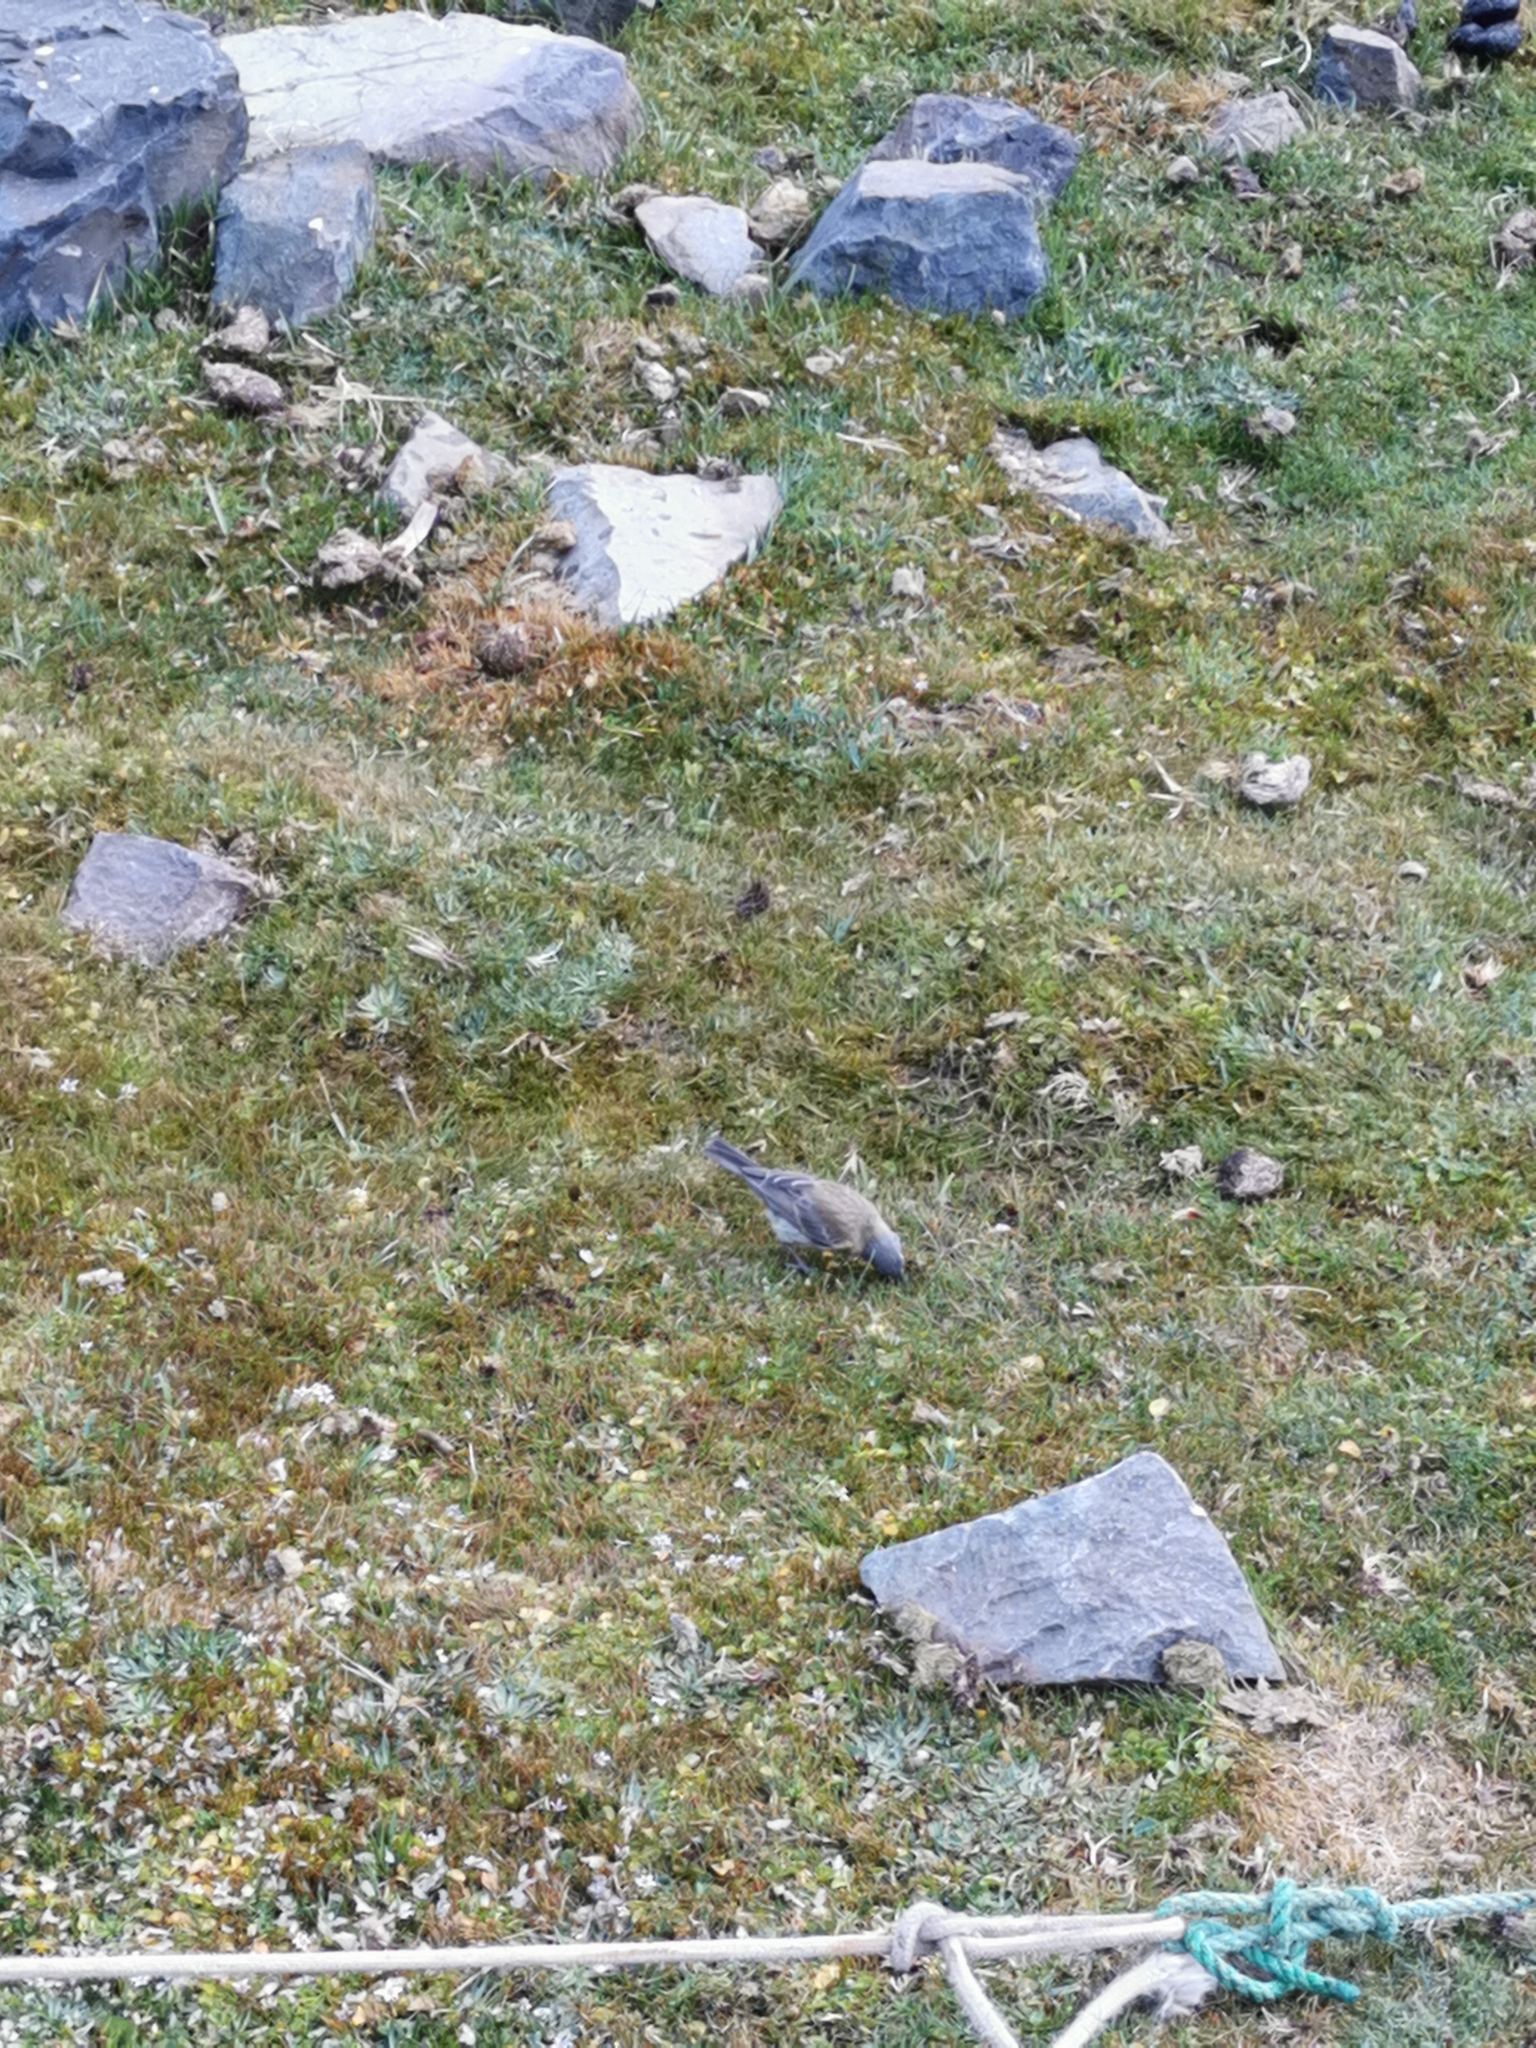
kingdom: Animalia
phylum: Chordata
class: Aves
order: Passeriformes
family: Thraupidae
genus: Phrygilus
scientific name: Phrygilus gayi
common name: Grey-hooded sierra finch
